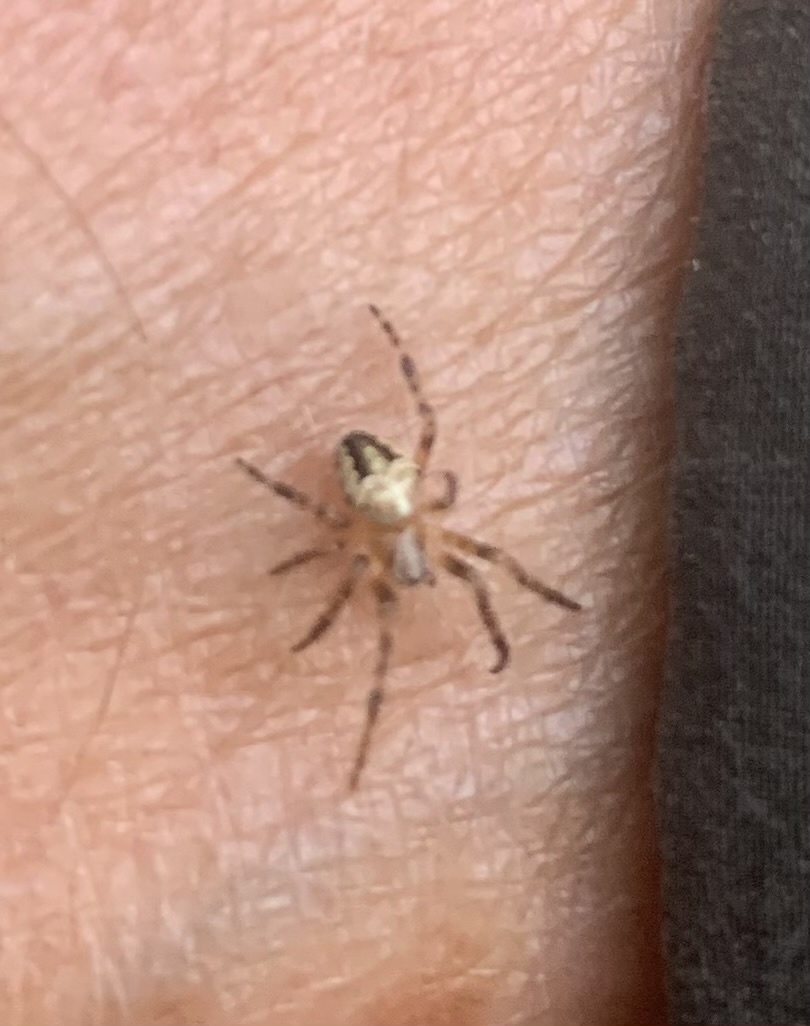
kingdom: Animalia
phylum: Arthropoda
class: Arachnida
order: Araneae
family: Araneidae
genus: Araneus
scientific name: Araneus nordmanni
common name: Nordmann's orbweaver
